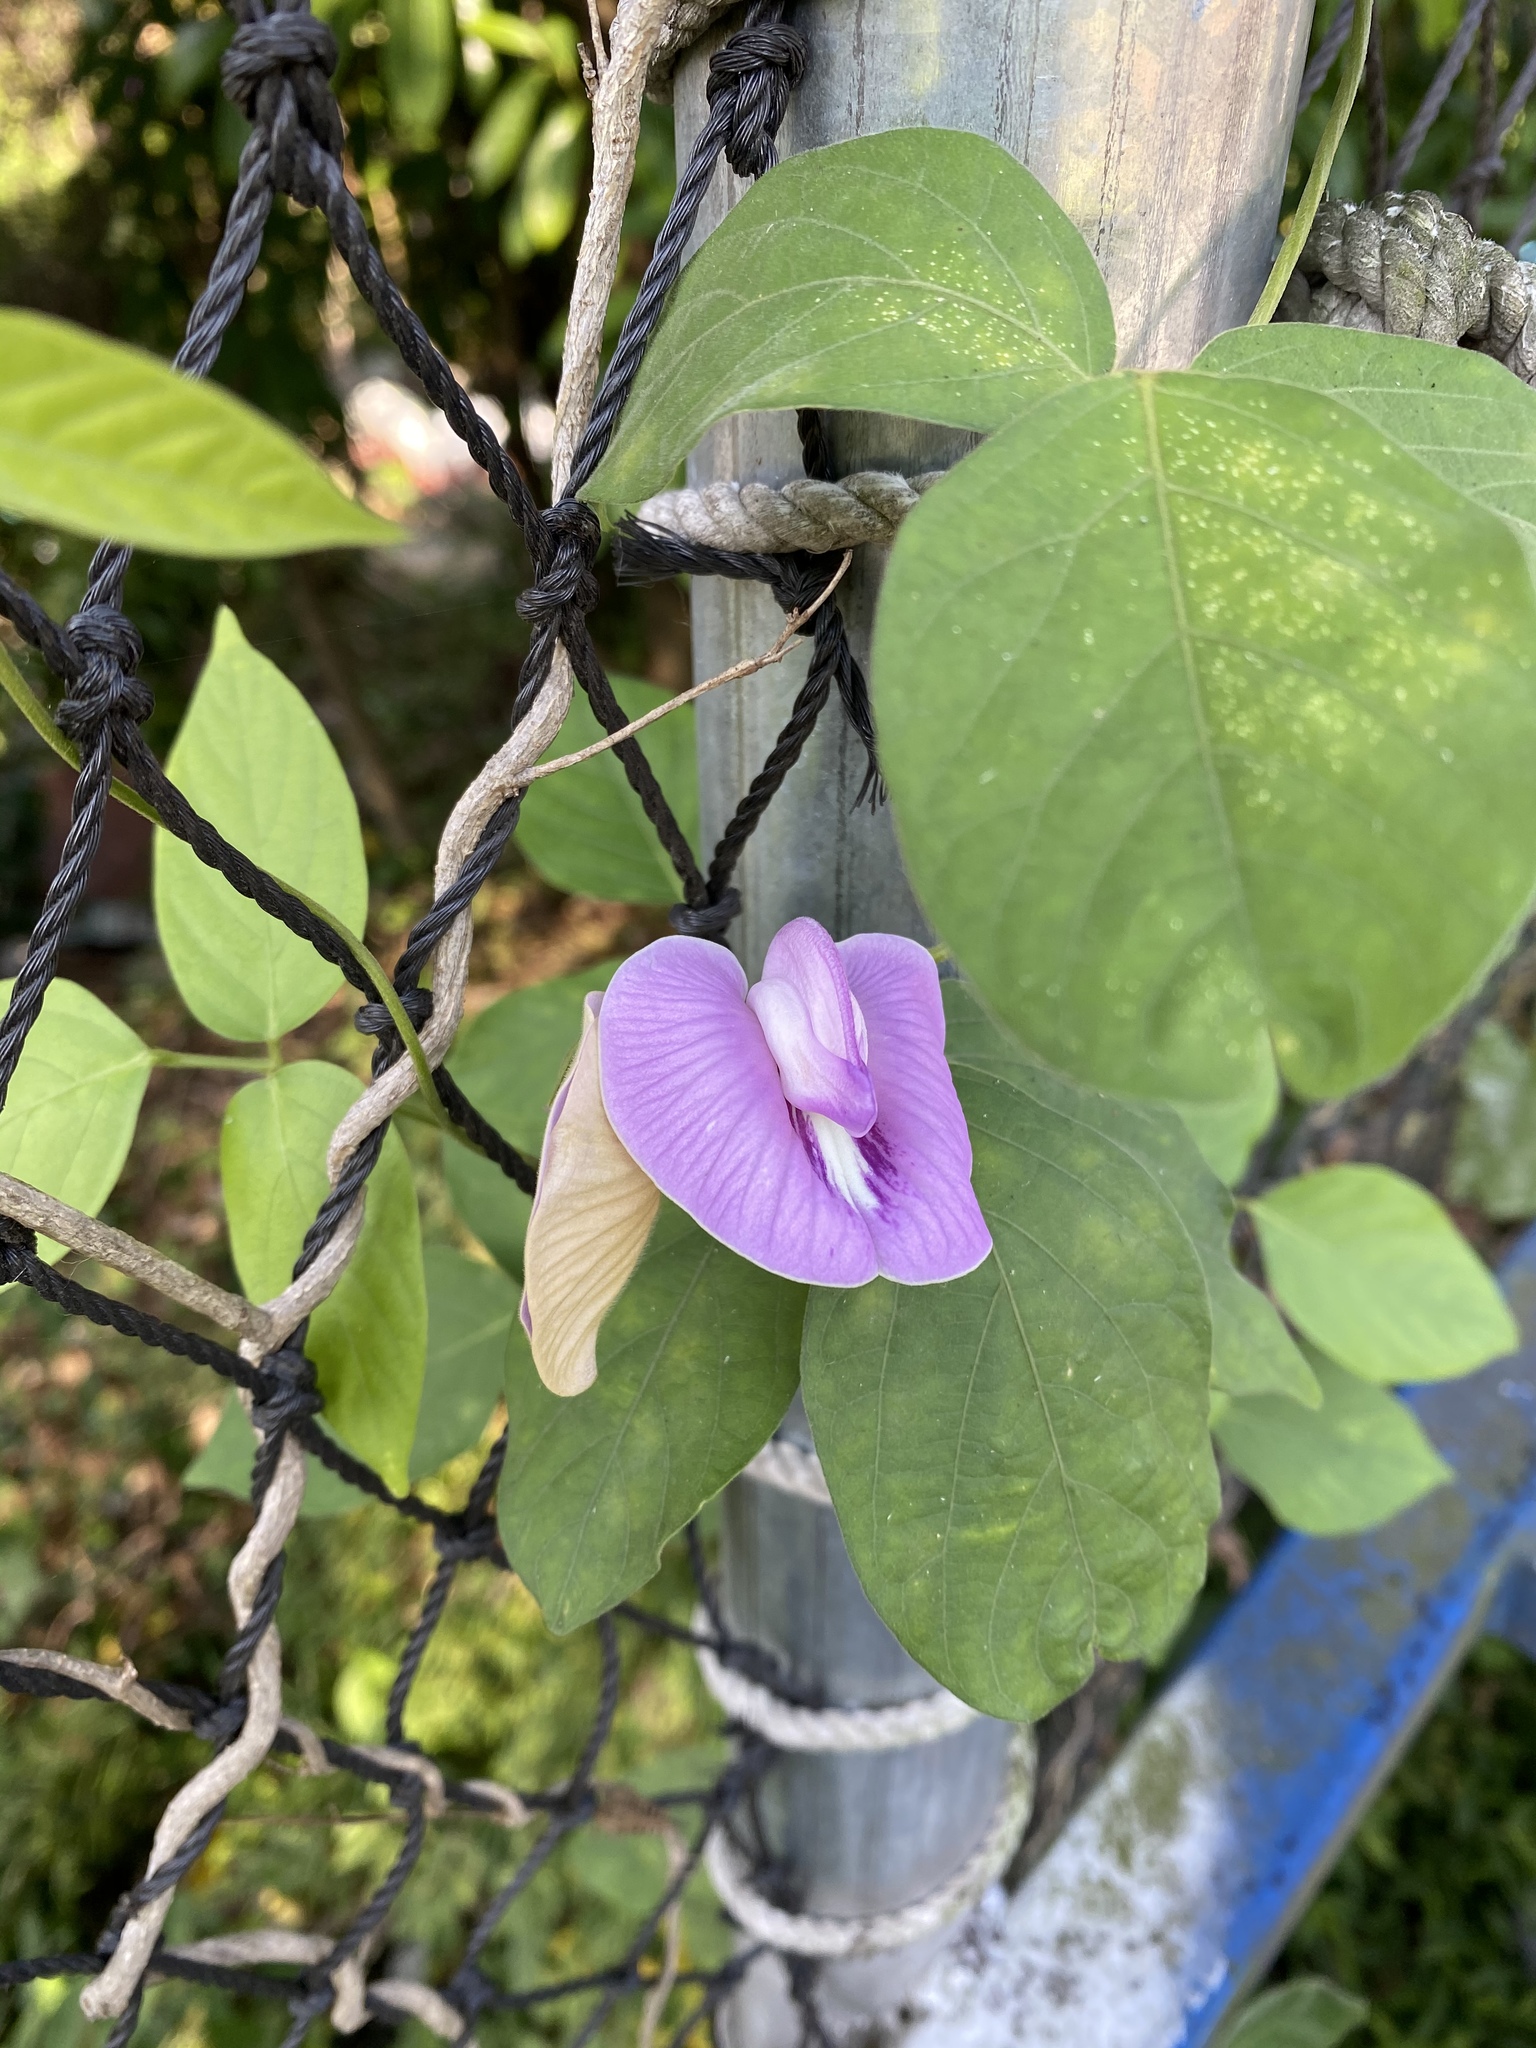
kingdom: Plantae
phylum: Tracheophyta
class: Magnoliopsida
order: Fabales
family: Fabaceae
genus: Centrosema
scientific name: Centrosema pubescens
